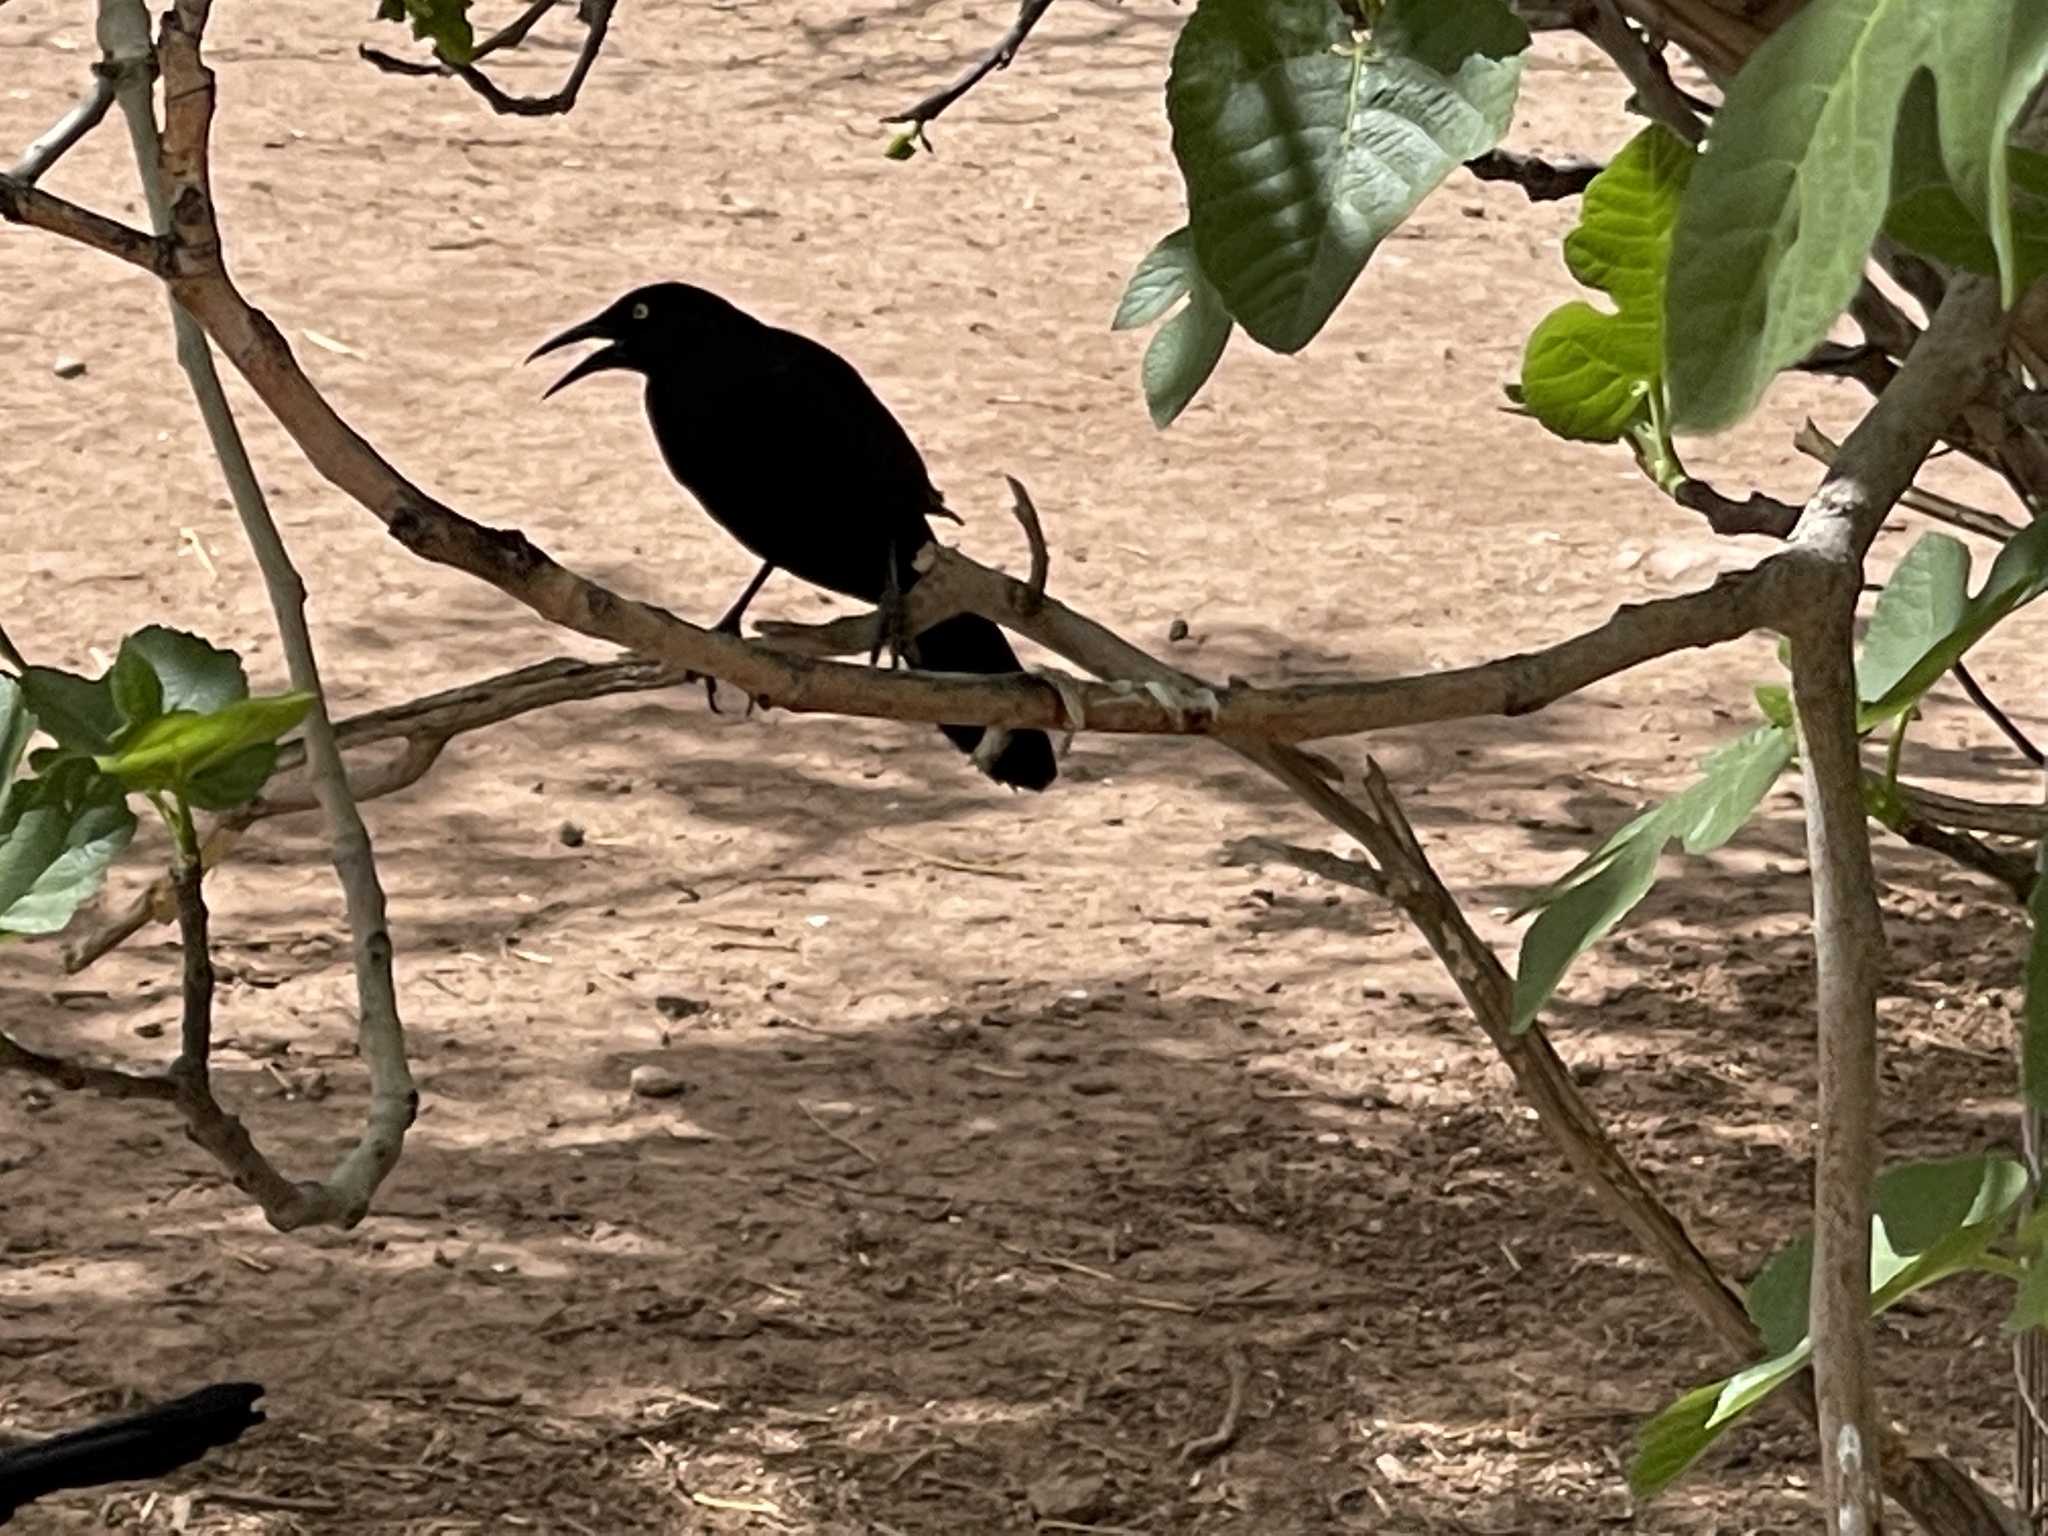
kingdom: Animalia
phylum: Chordata
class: Aves
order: Passeriformes
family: Icteridae
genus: Quiscalus
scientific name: Quiscalus mexicanus
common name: Great-tailed grackle
